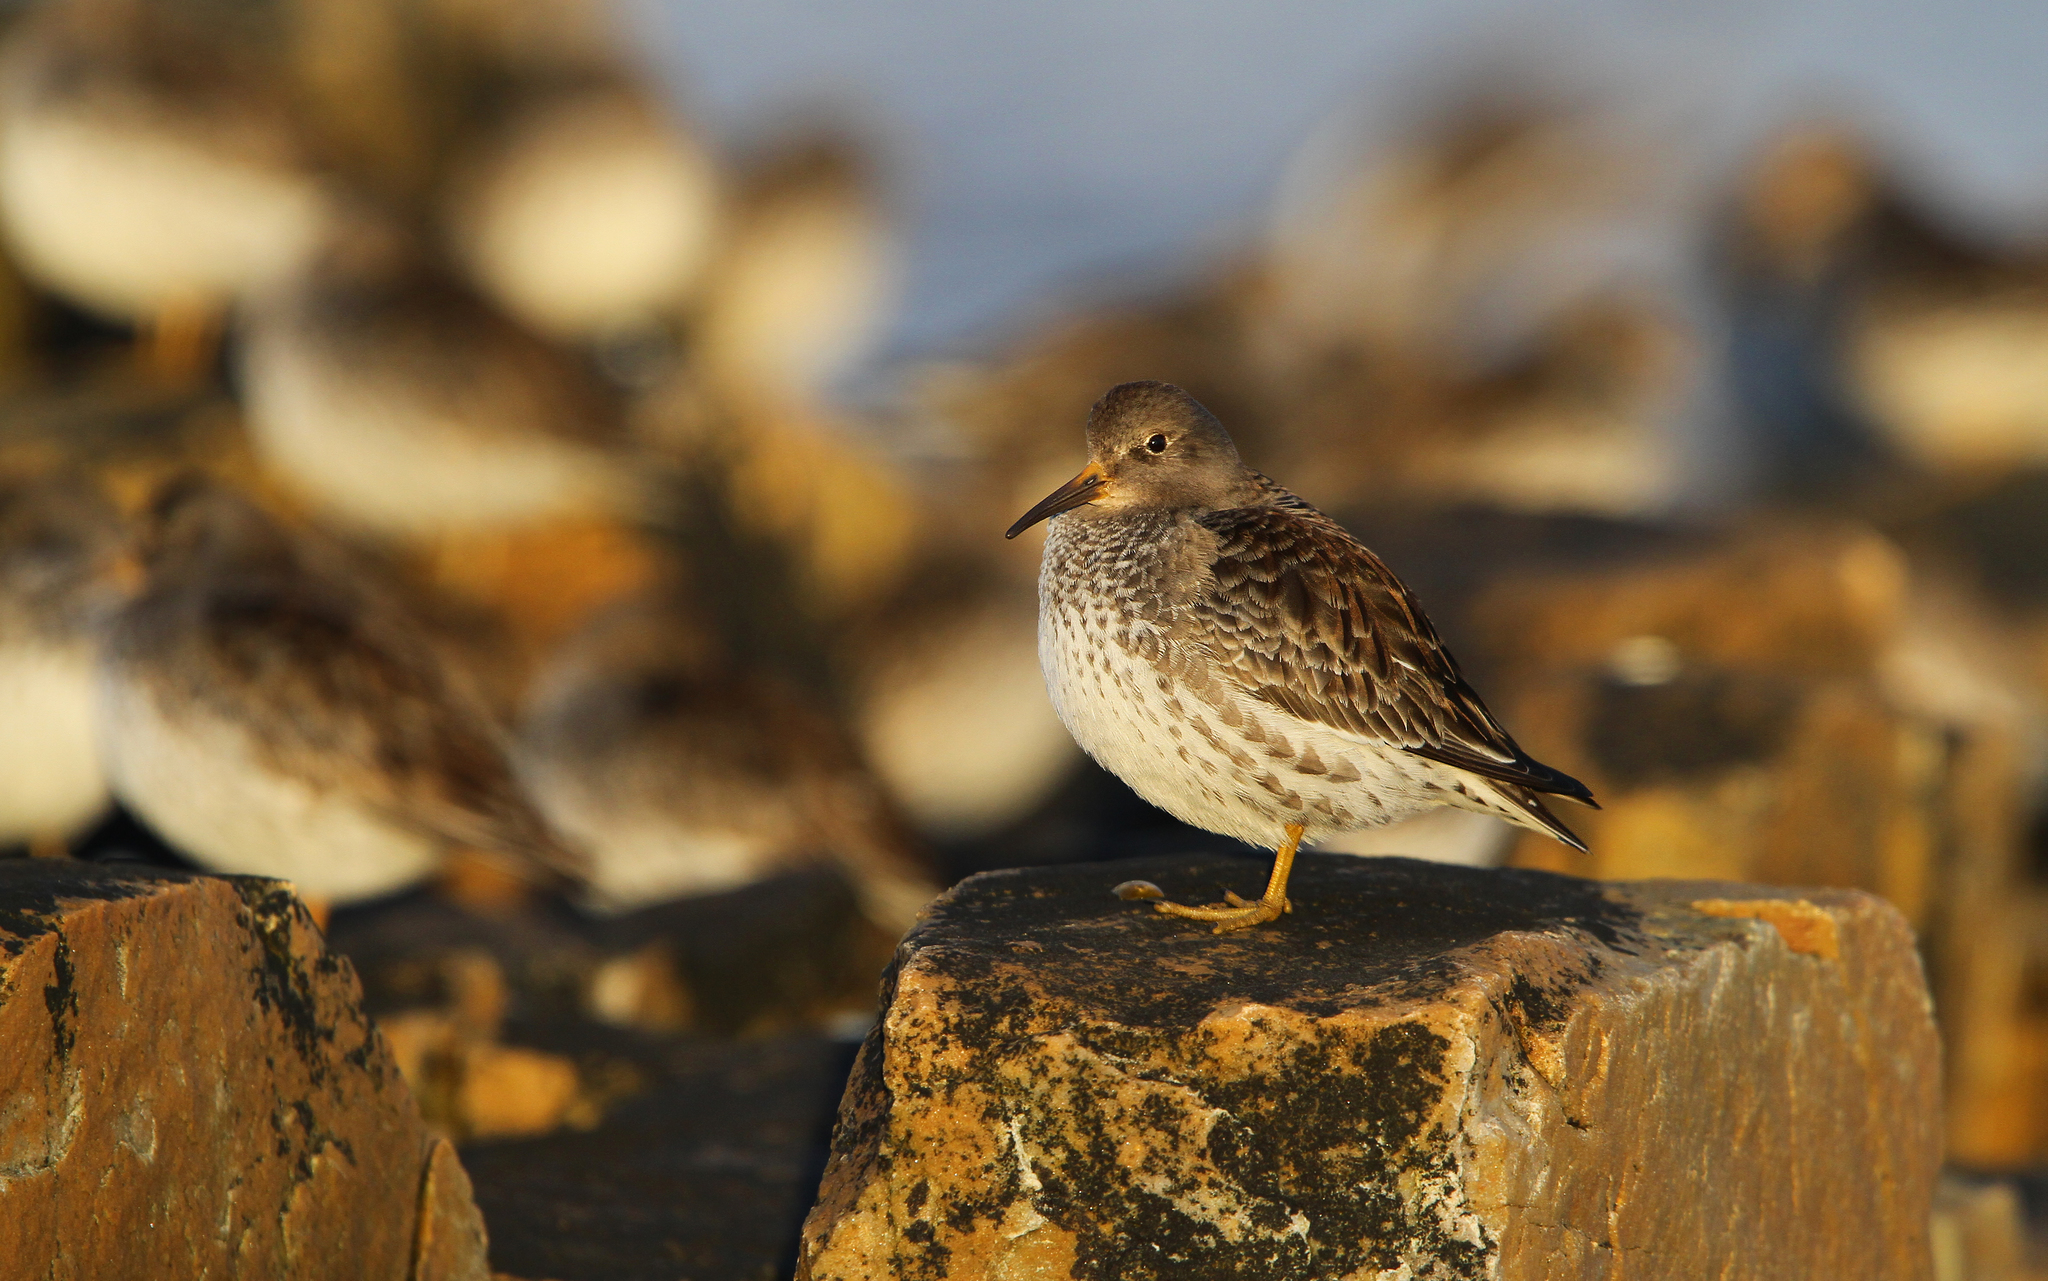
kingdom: Animalia
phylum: Chordata
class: Aves
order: Anseriformes
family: Anatidae
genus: Cygnus
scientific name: Cygnus cygnus
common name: Whooper swan
